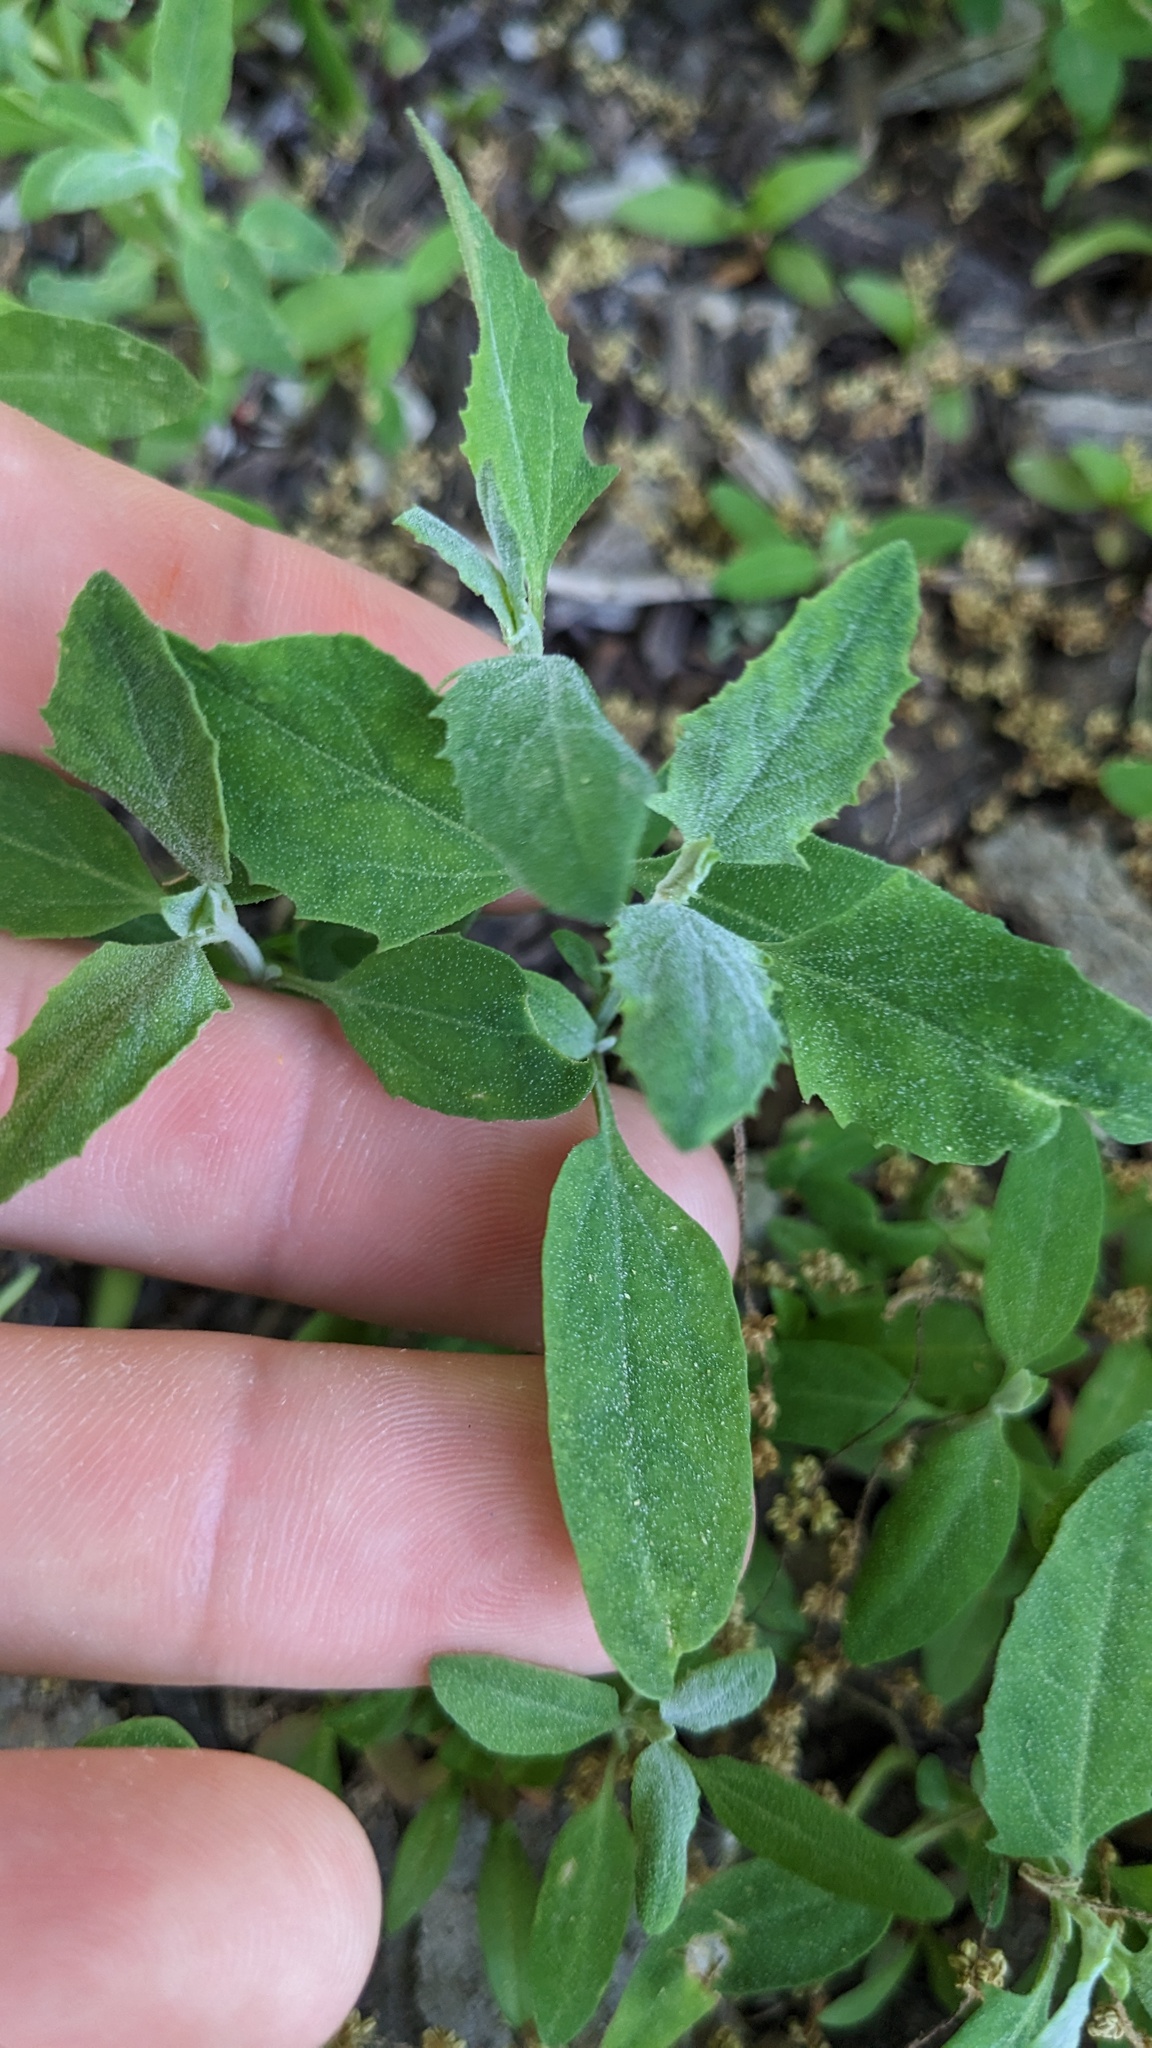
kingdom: Plantae
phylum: Tracheophyta
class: Magnoliopsida
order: Caryophyllales
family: Amaranthaceae
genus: Chenopodium
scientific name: Chenopodium album
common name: Fat-hen
